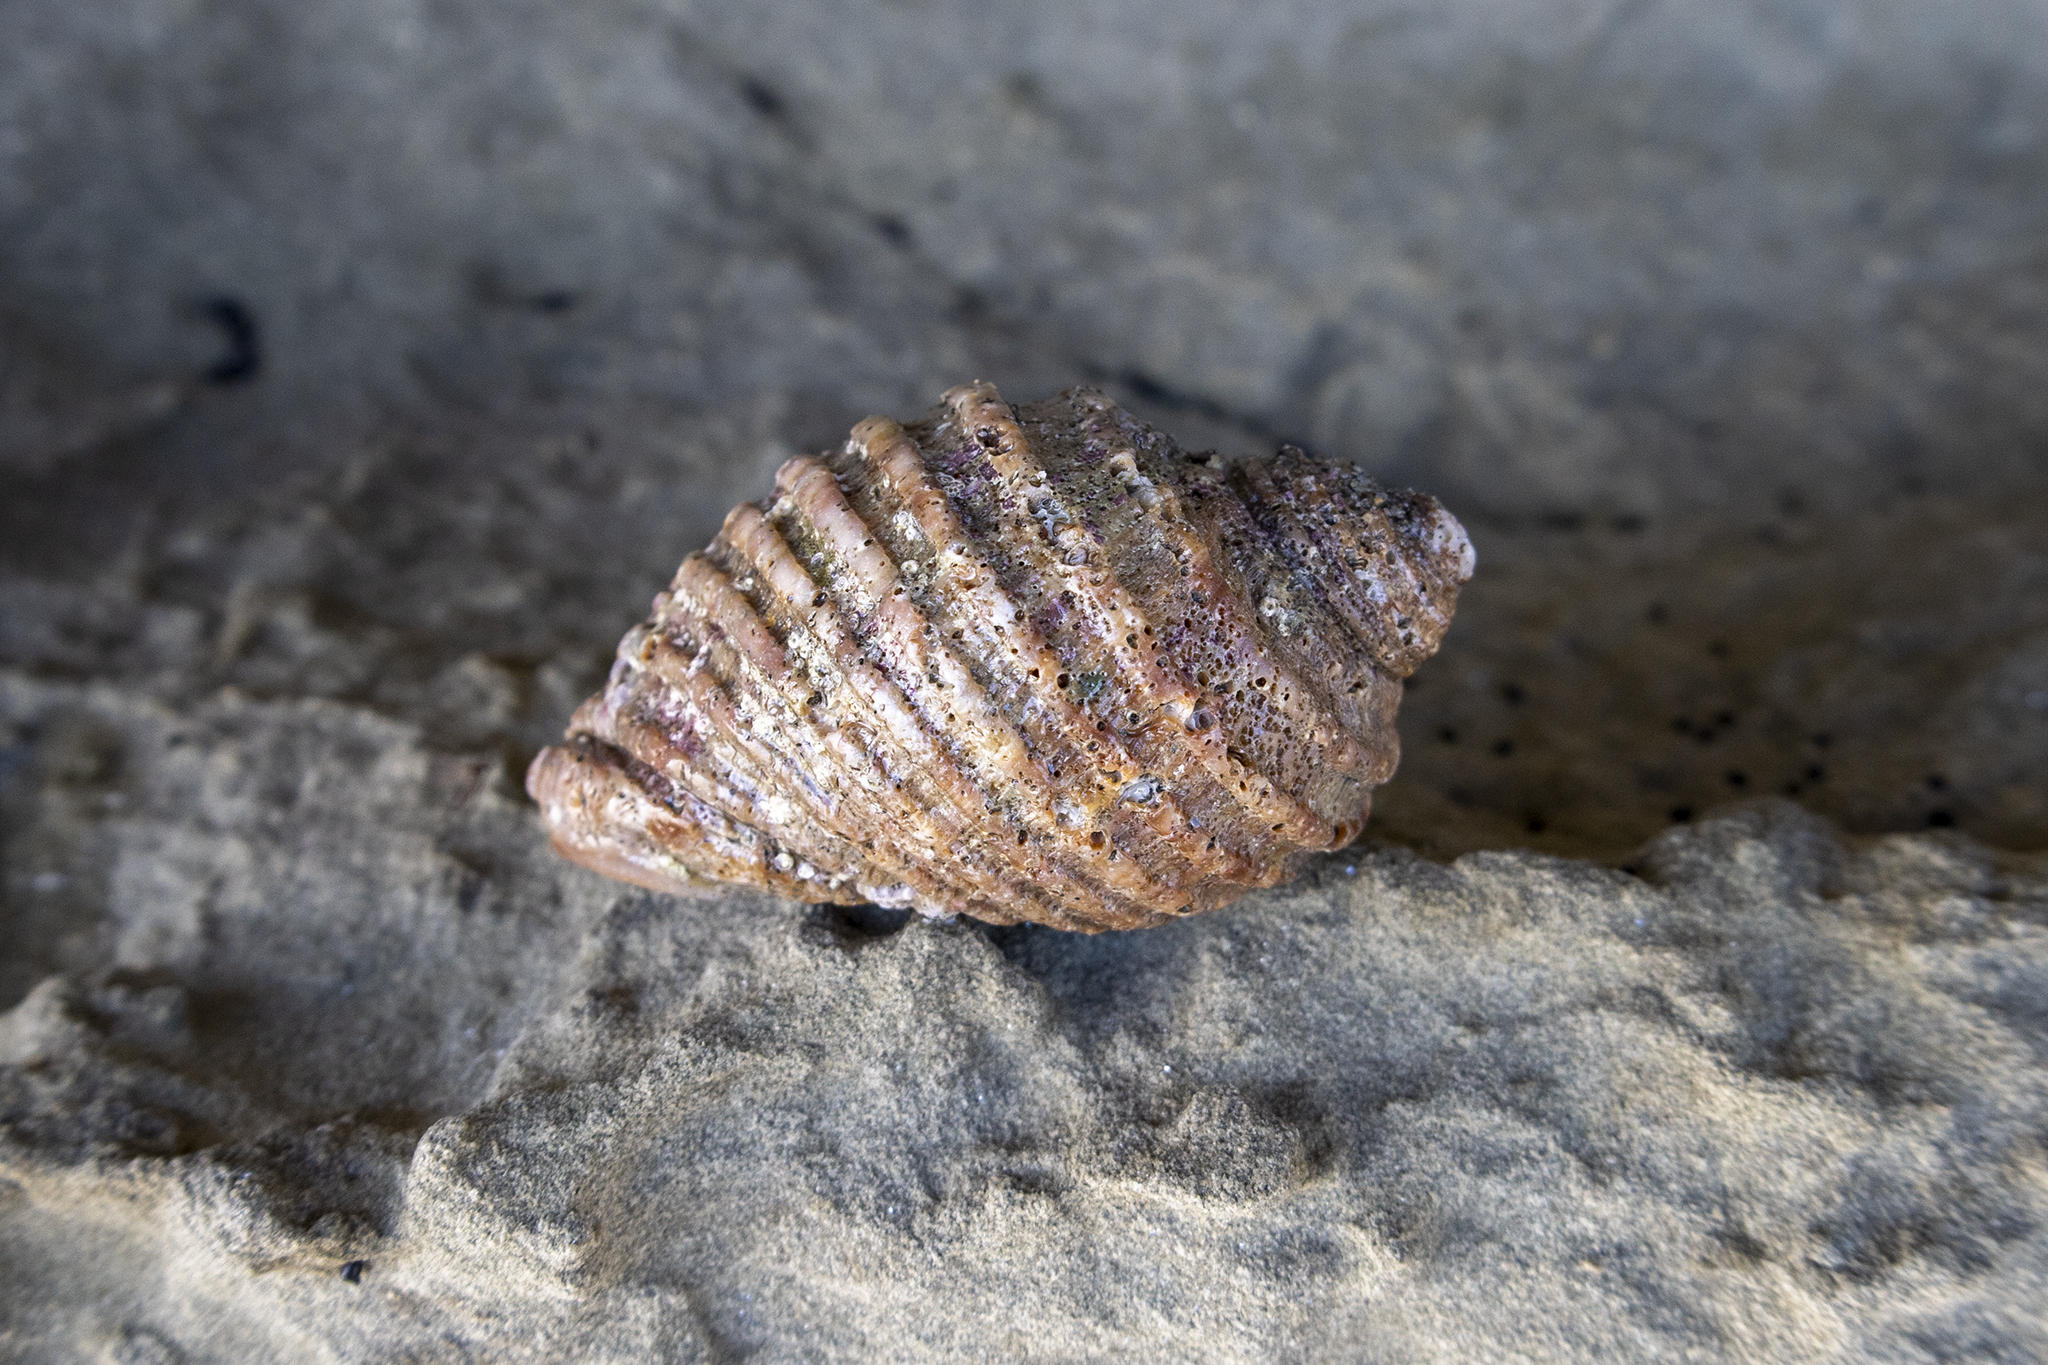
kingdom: Animalia
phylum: Mollusca
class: Gastropoda
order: Neogastropoda
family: Muricidae
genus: Dicathais
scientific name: Dicathais orbita
